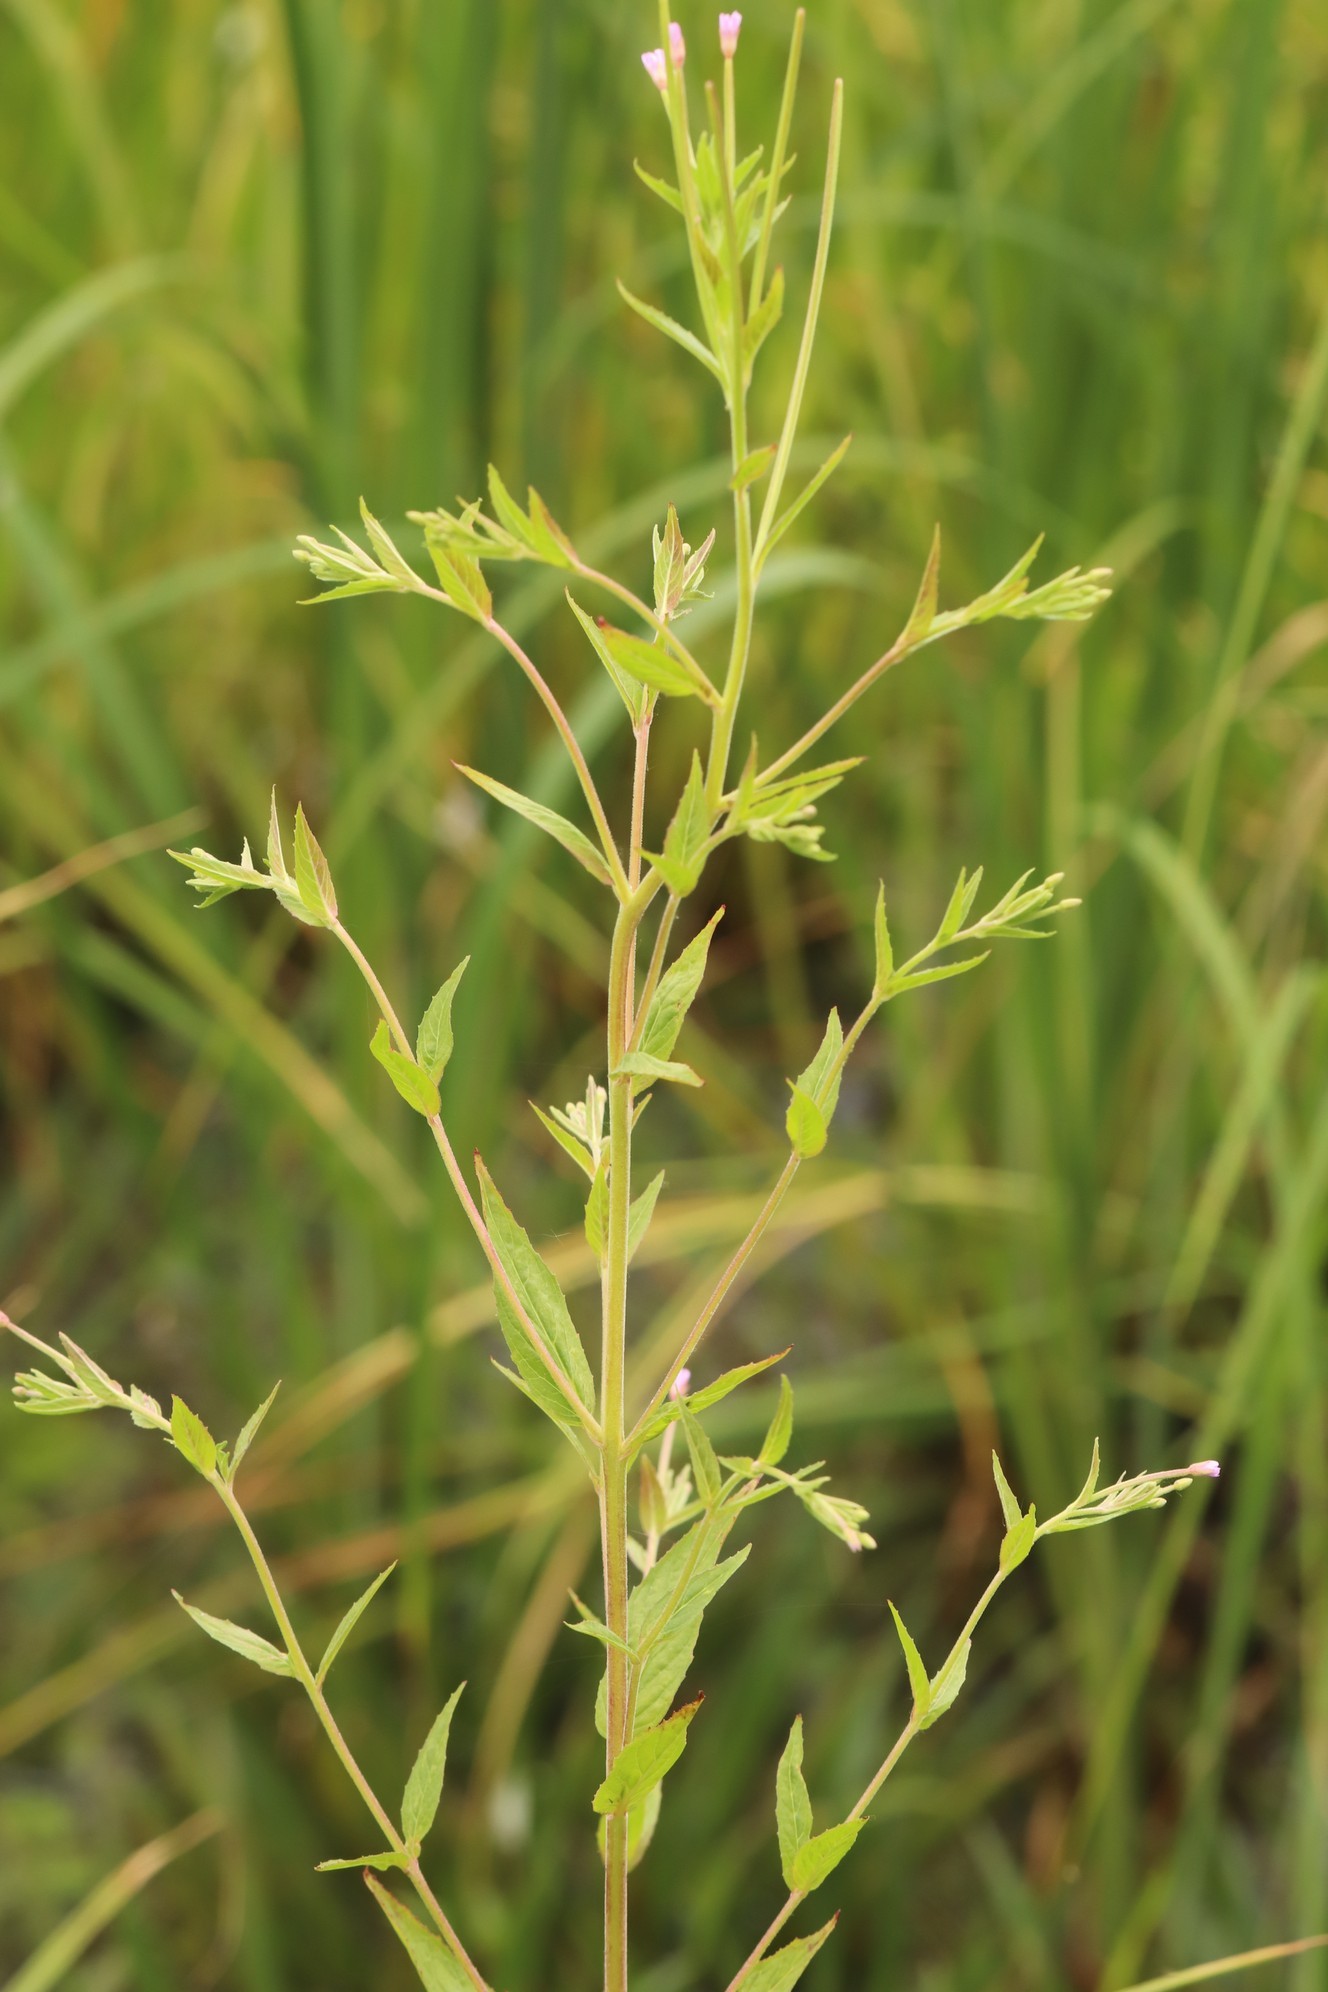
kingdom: Plantae
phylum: Tracheophyta
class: Magnoliopsida
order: Myrtales
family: Onagraceae
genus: Epilobium
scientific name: Epilobium ciliatum
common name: American willowherb
